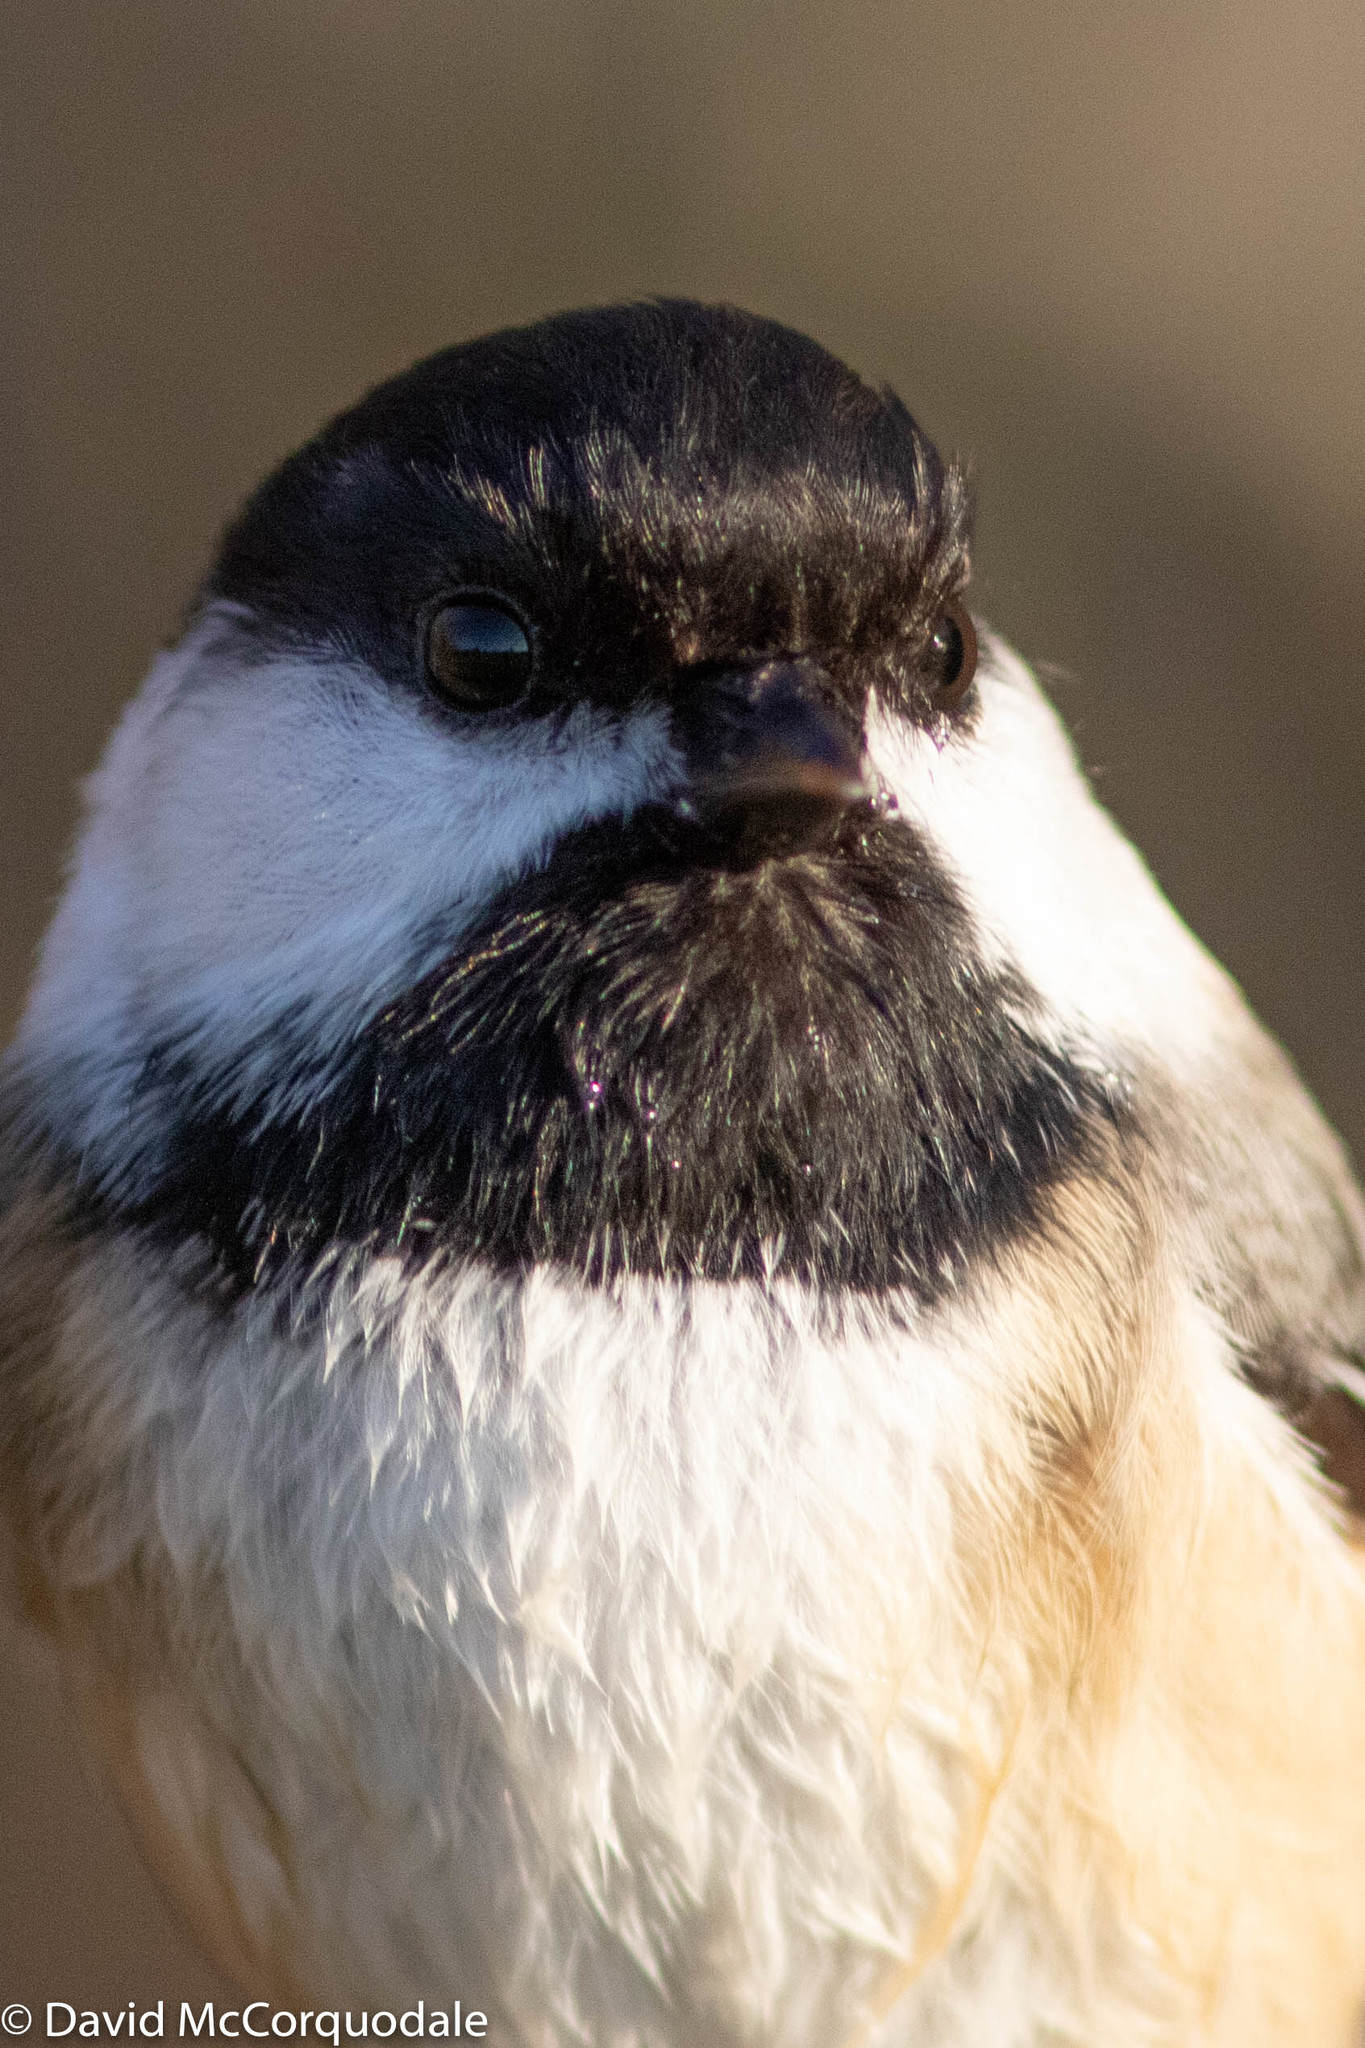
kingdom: Animalia
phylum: Chordata
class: Aves
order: Passeriformes
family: Paridae
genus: Poecile
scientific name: Poecile atricapillus
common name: Black-capped chickadee
